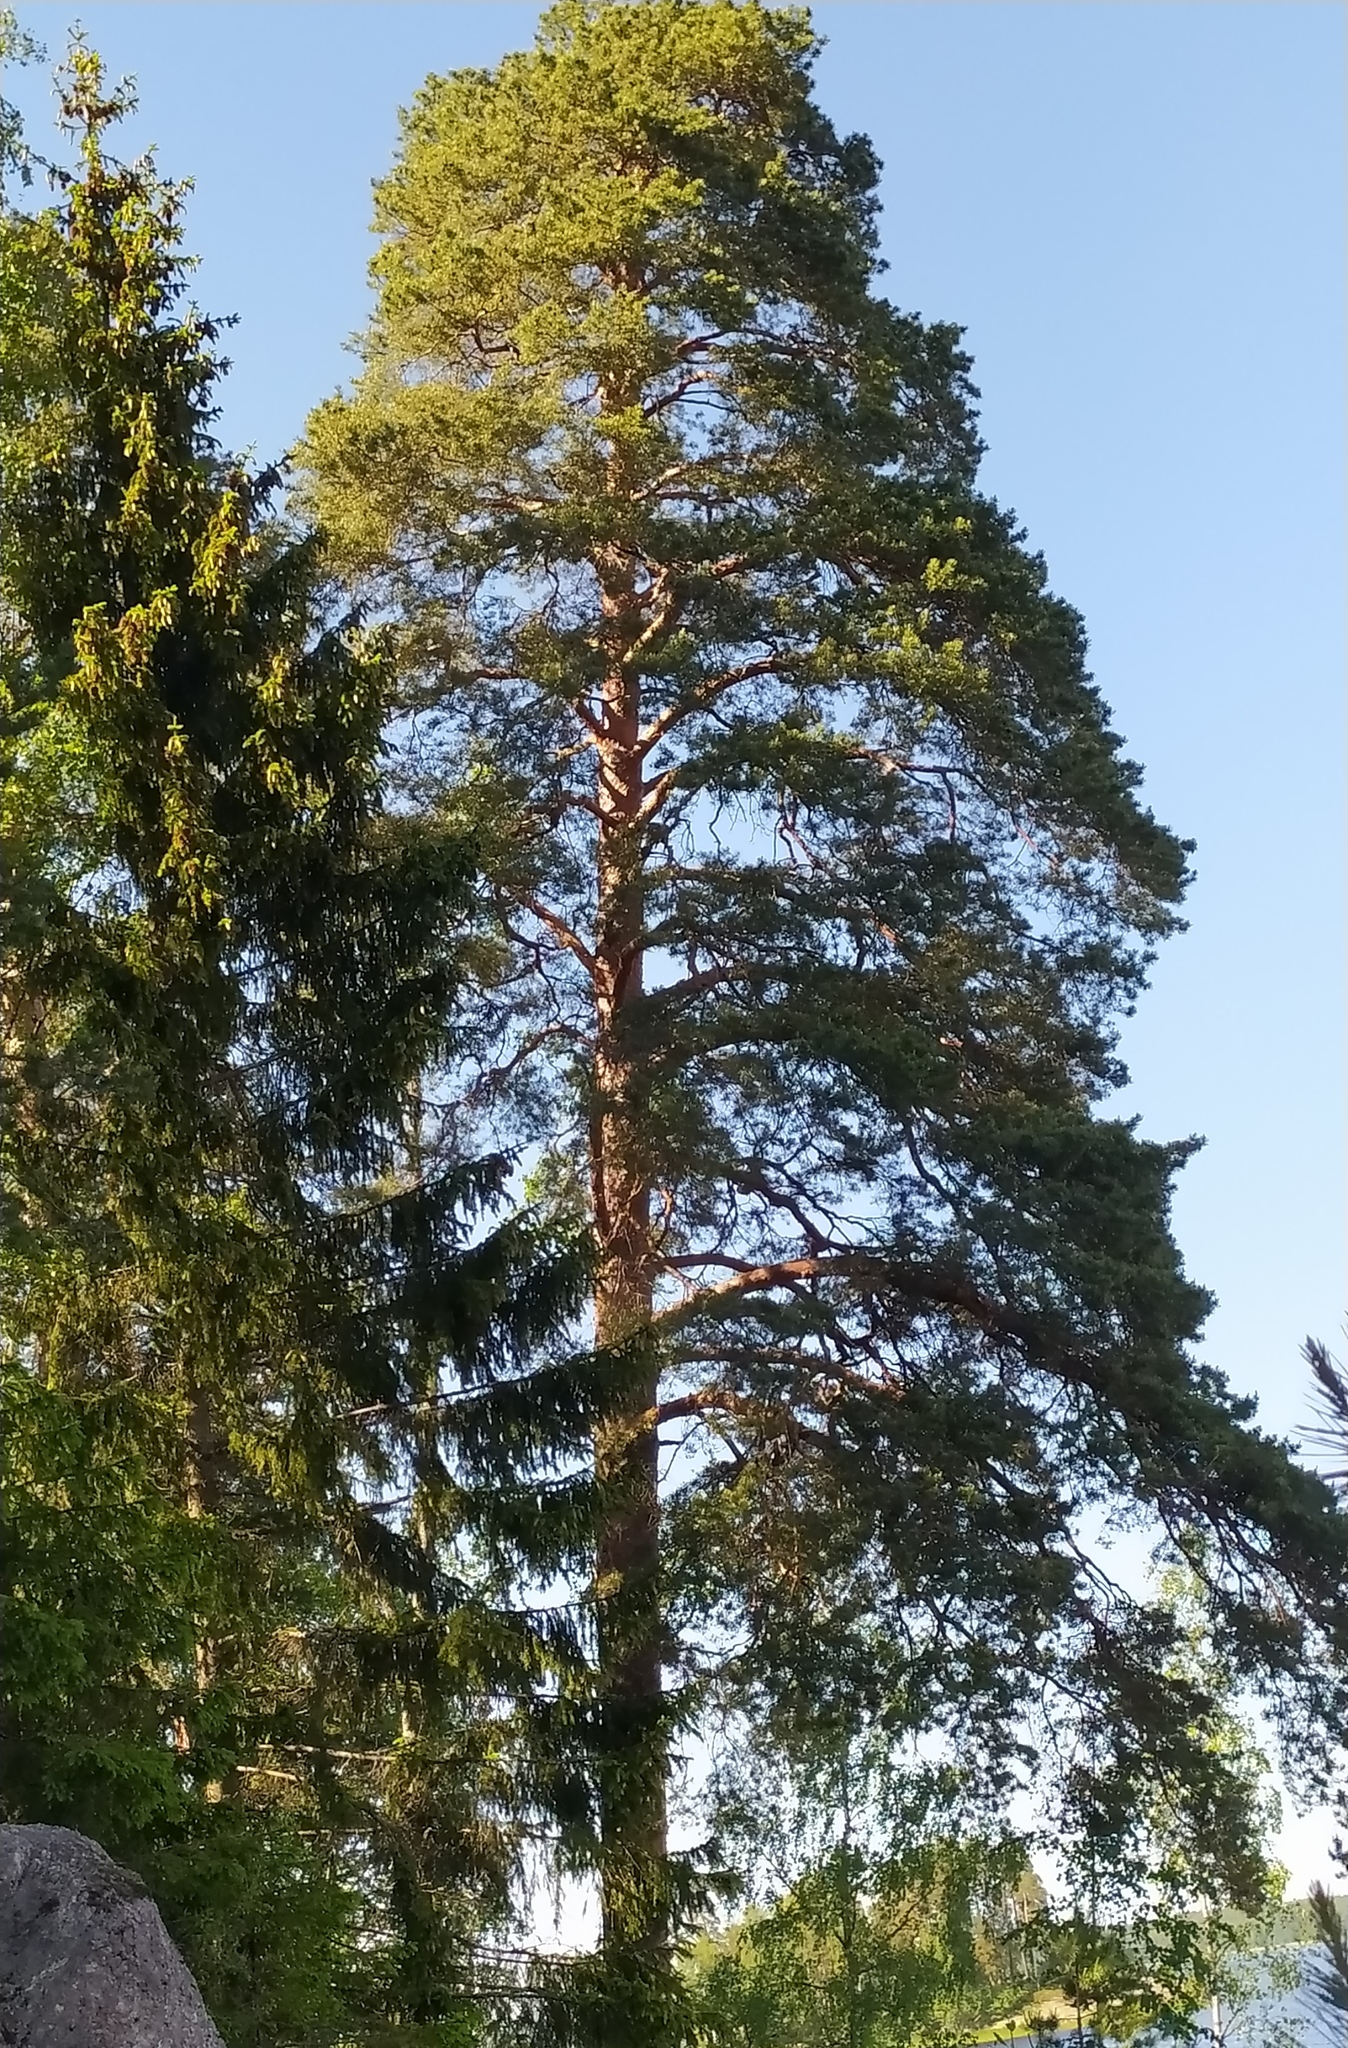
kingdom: Plantae
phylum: Tracheophyta
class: Pinopsida
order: Pinales
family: Pinaceae
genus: Pinus
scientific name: Pinus sylvestris
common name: Scots pine
